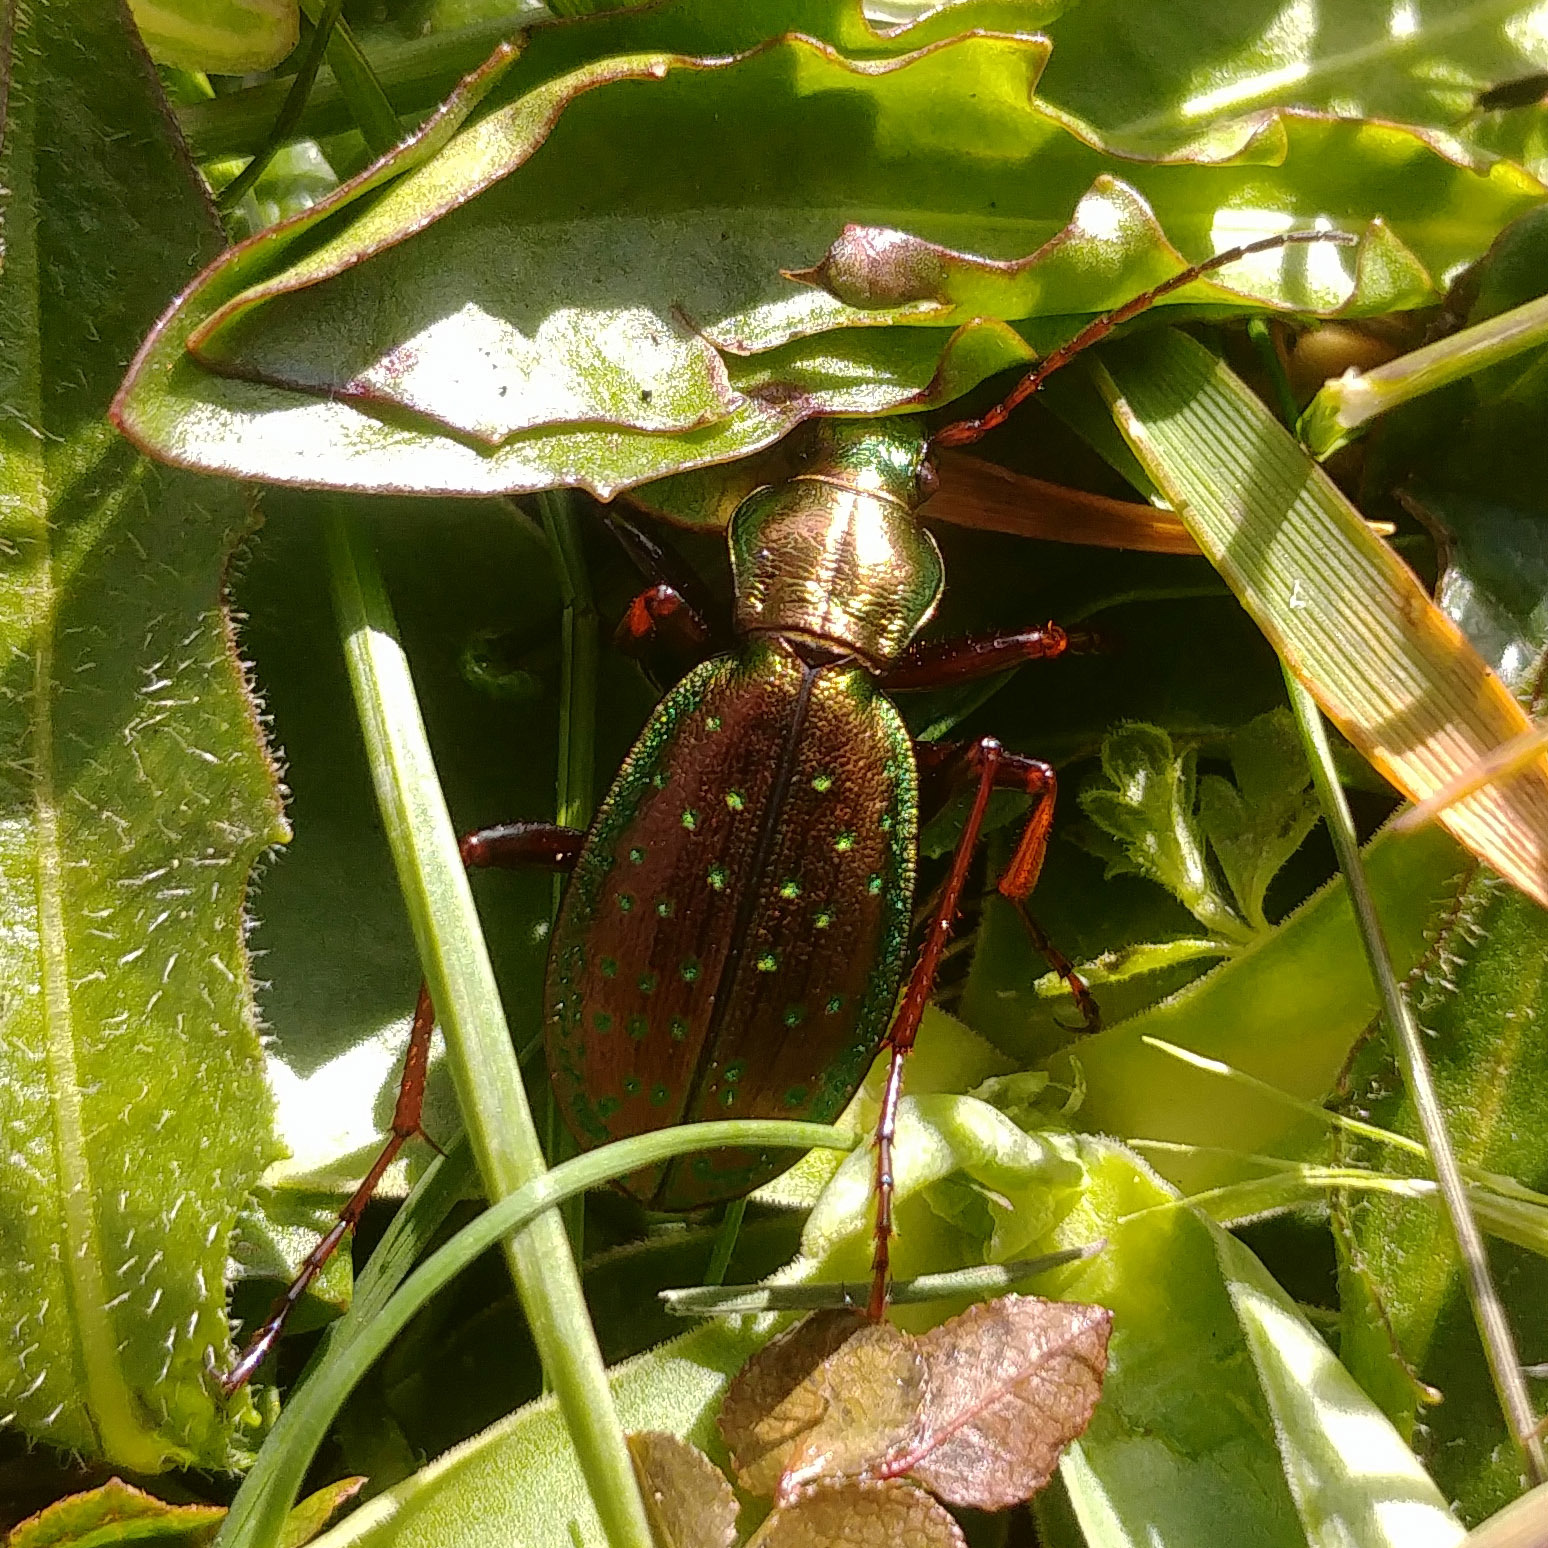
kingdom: Animalia
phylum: Arthropoda
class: Insecta
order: Coleoptera
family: Carabidae
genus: Carabus
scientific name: Carabus fabricii
